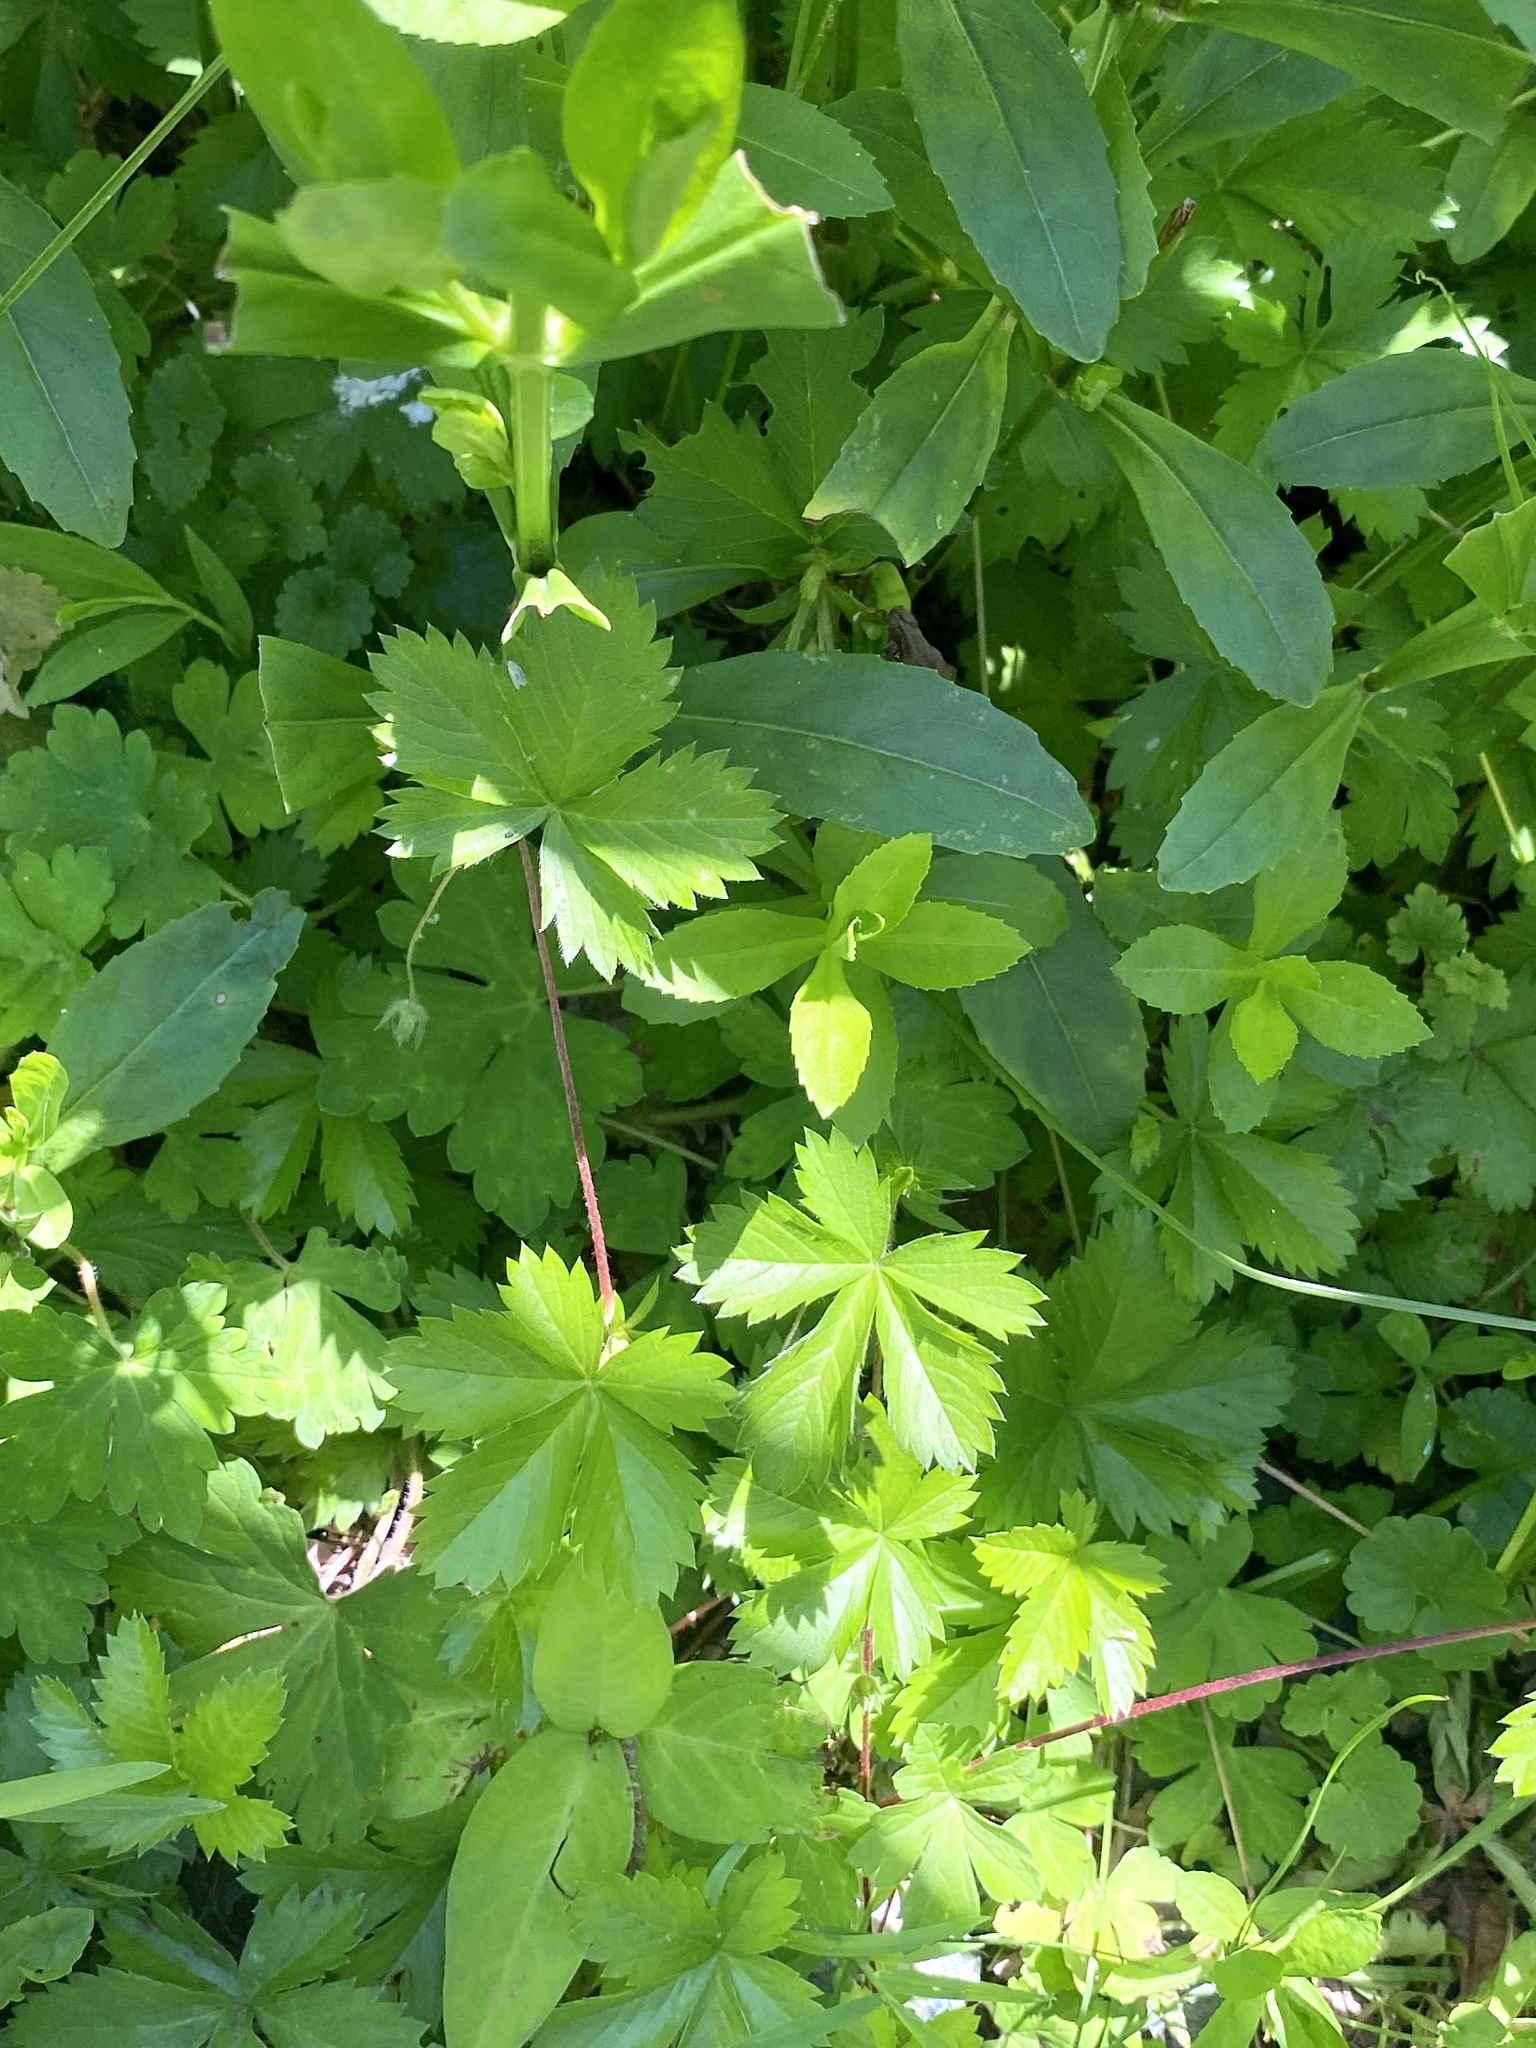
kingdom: Plantae
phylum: Tracheophyta
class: Magnoliopsida
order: Rosales
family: Rosaceae
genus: Potentilla
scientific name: Potentilla canadensis
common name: Canada cinquefoil
